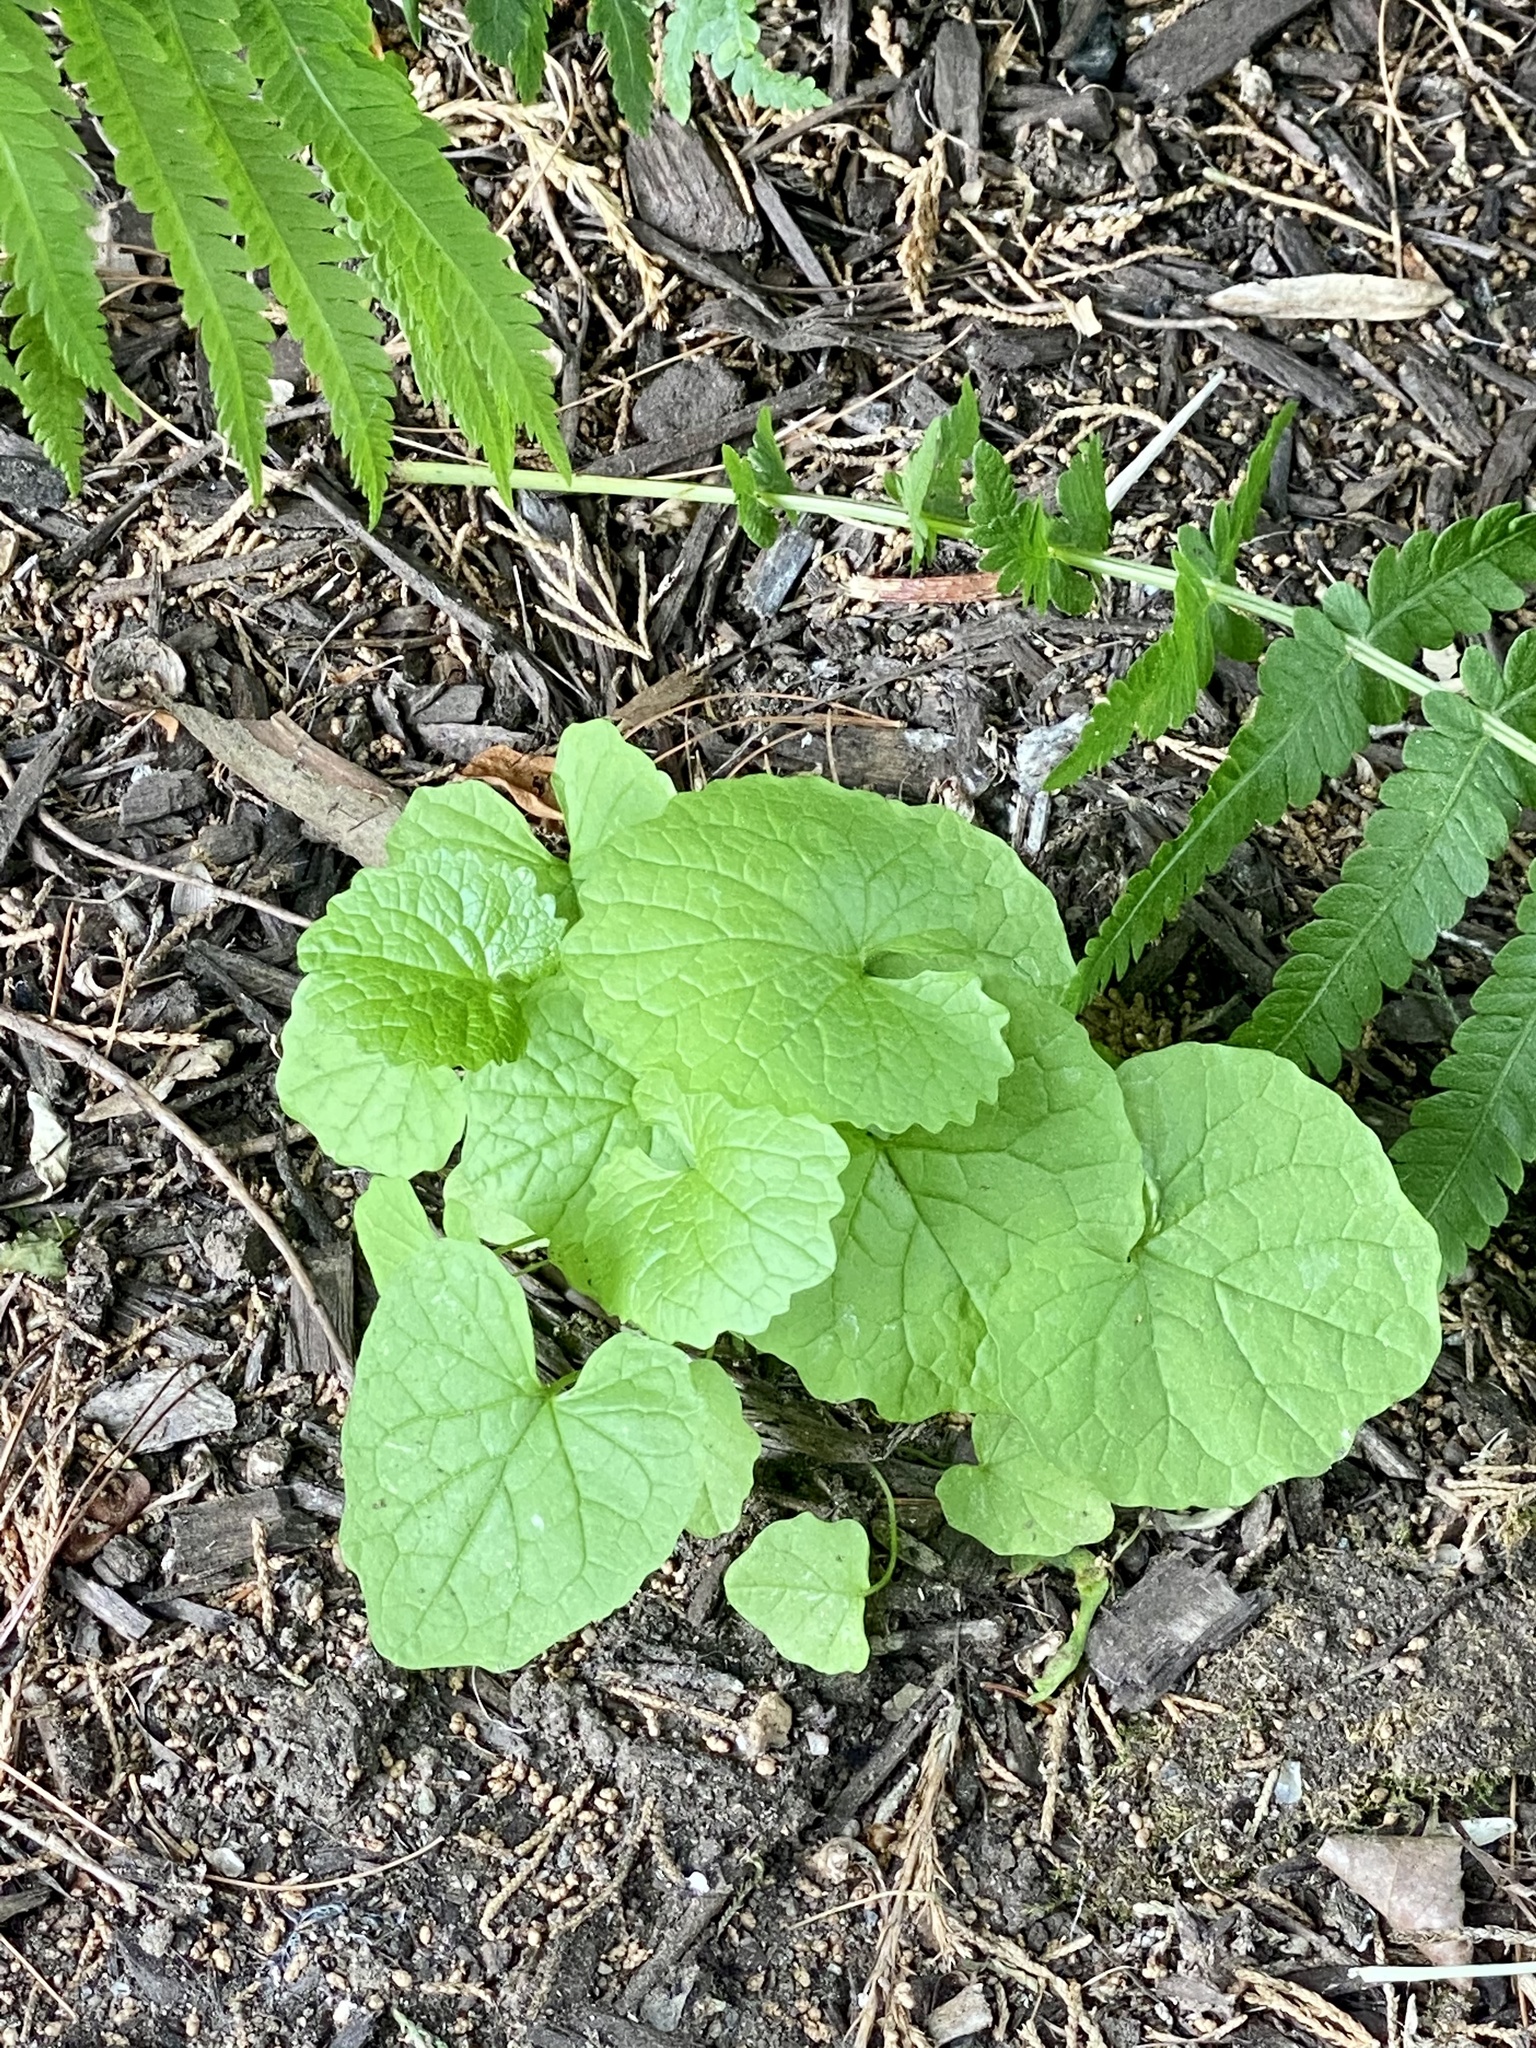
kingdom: Plantae
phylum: Tracheophyta
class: Magnoliopsida
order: Brassicales
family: Brassicaceae
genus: Alliaria
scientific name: Alliaria petiolata
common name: Garlic mustard
